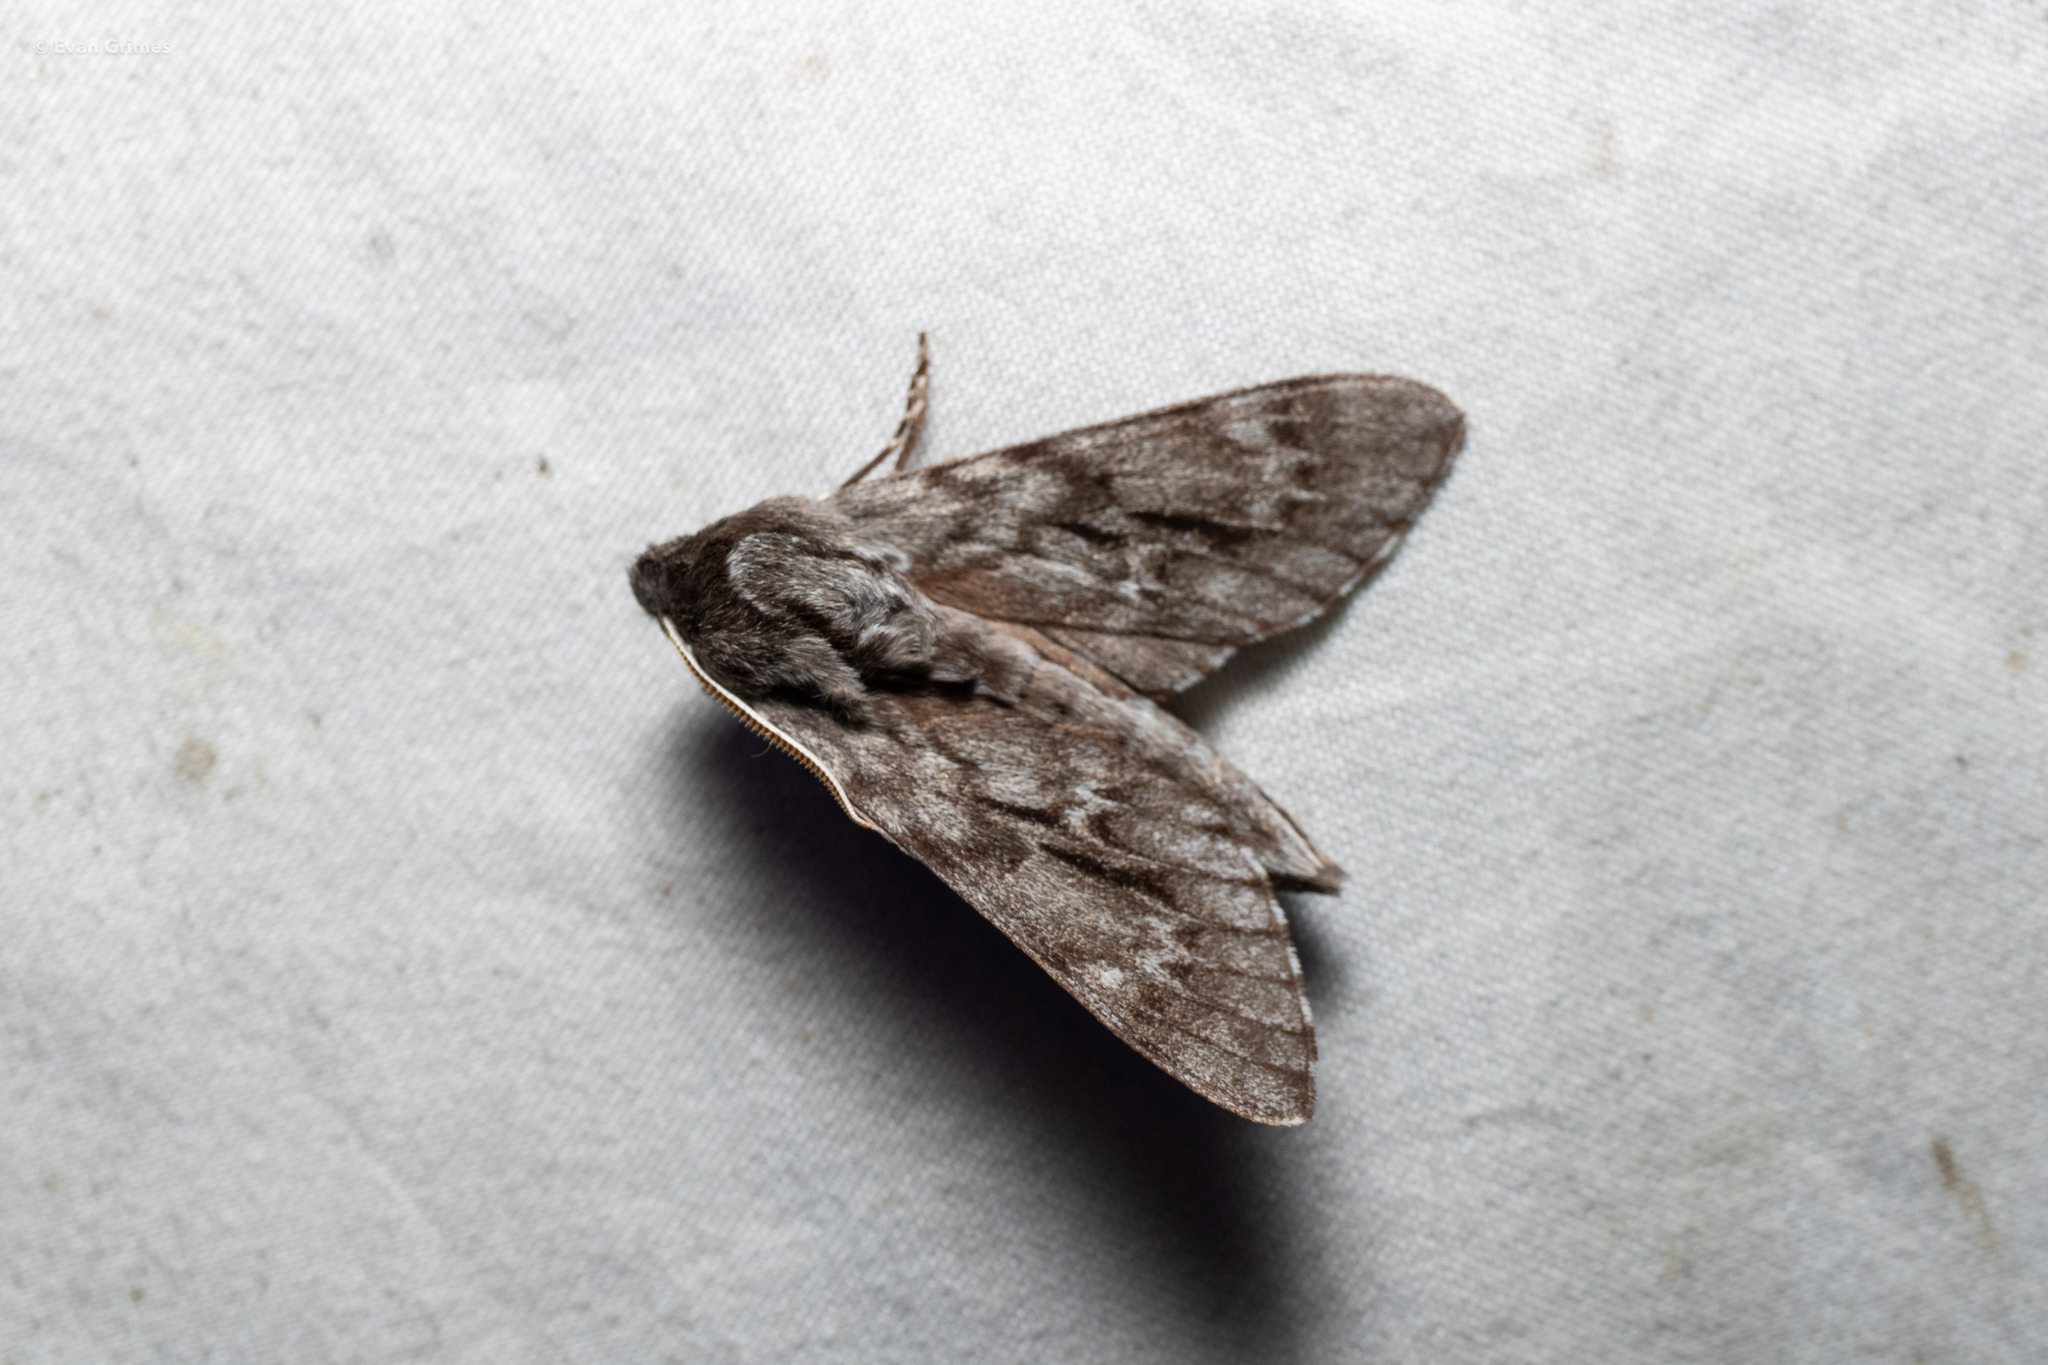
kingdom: Animalia
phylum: Arthropoda
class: Insecta
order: Lepidoptera
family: Sphingidae
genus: Lapara
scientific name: Lapara bombycoides
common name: Northern pine sphinx
